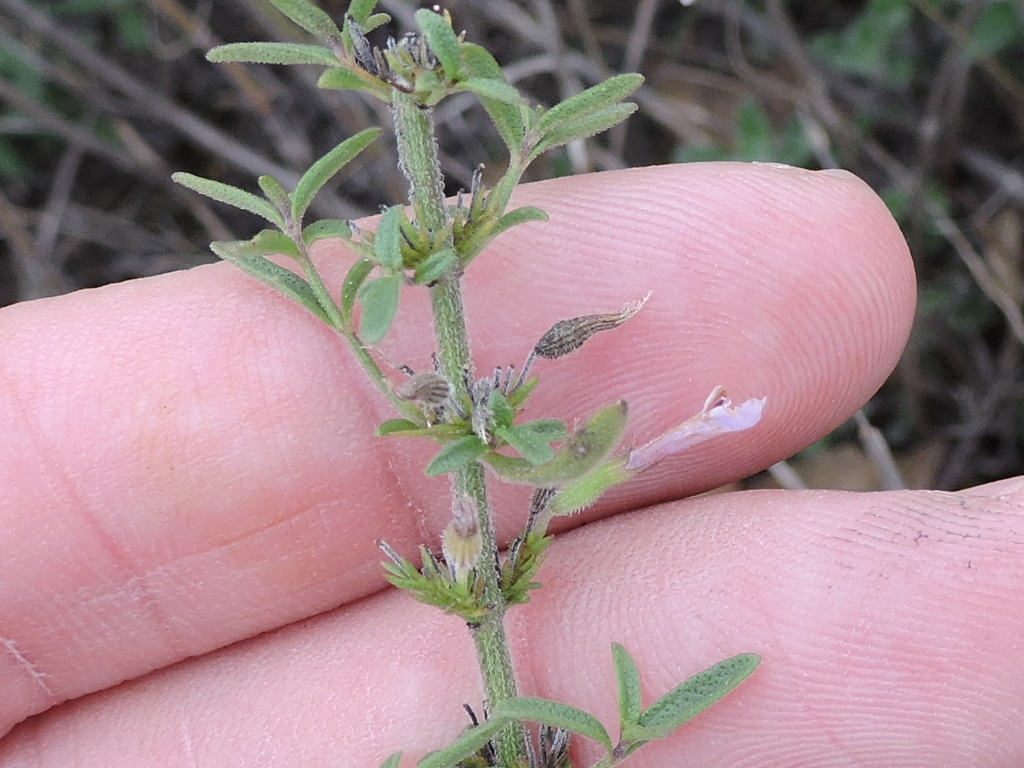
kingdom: Plantae
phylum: Tracheophyta
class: Magnoliopsida
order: Lamiales
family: Lamiaceae
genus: Hedeoma
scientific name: Hedeoma reverchonii
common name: Reverchon's false penny-royal
